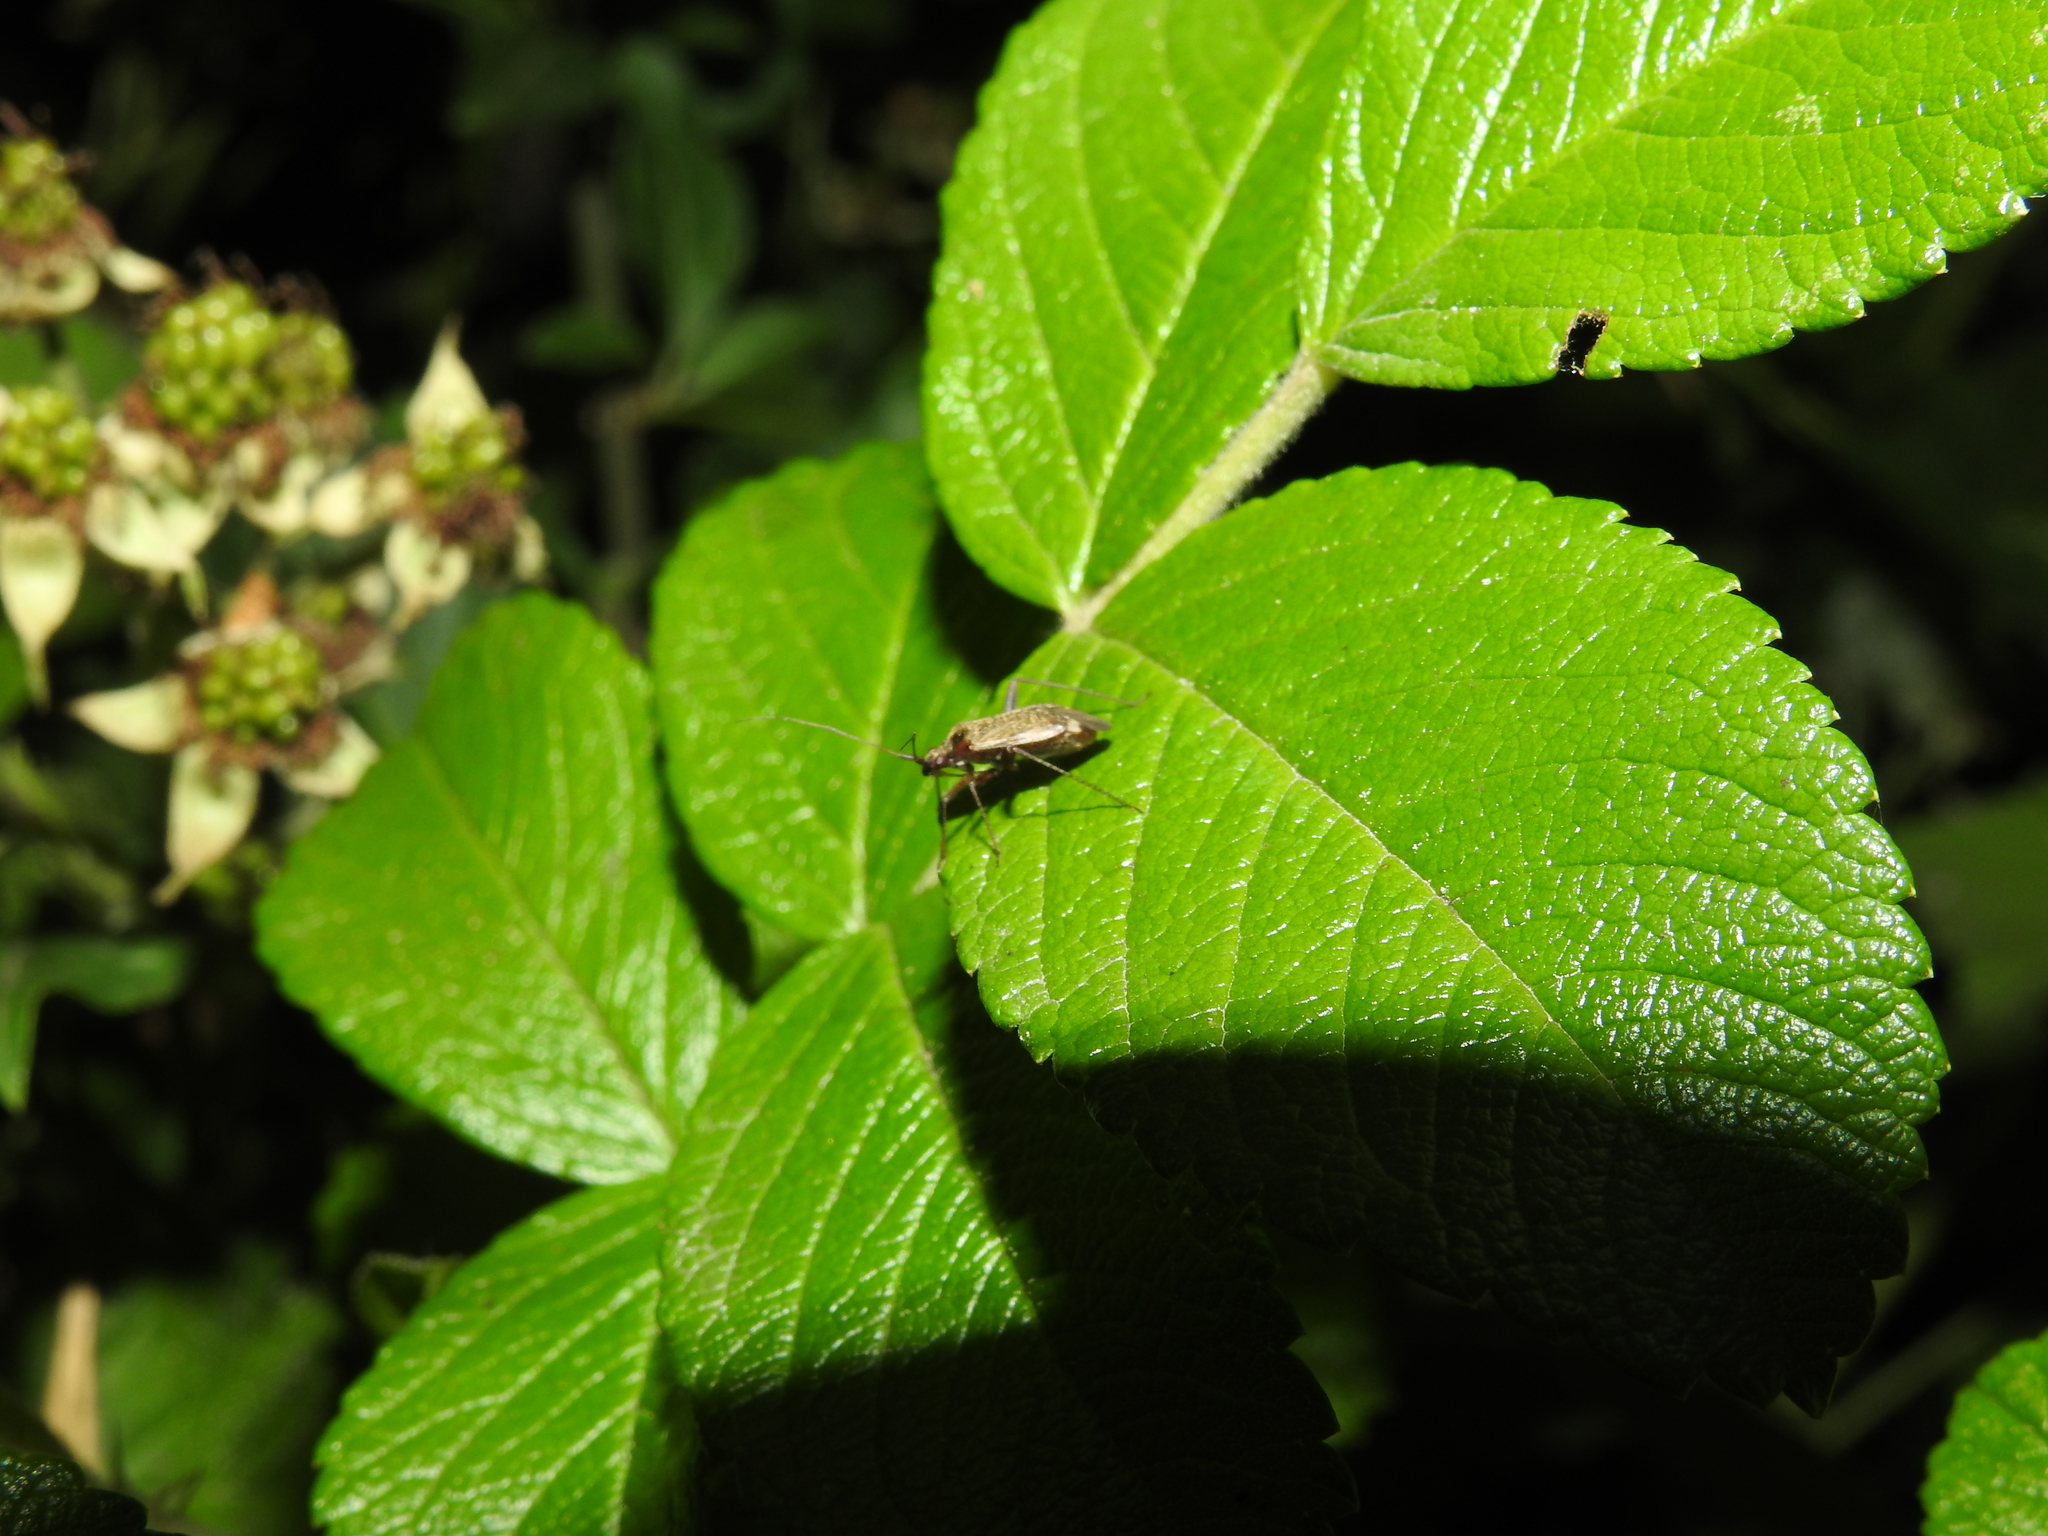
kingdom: Animalia
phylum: Arthropoda
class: Insecta
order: Hemiptera
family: Miridae
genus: Closterotomus
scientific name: Closterotomus fulvomaculatus
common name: Spotted plant bug
